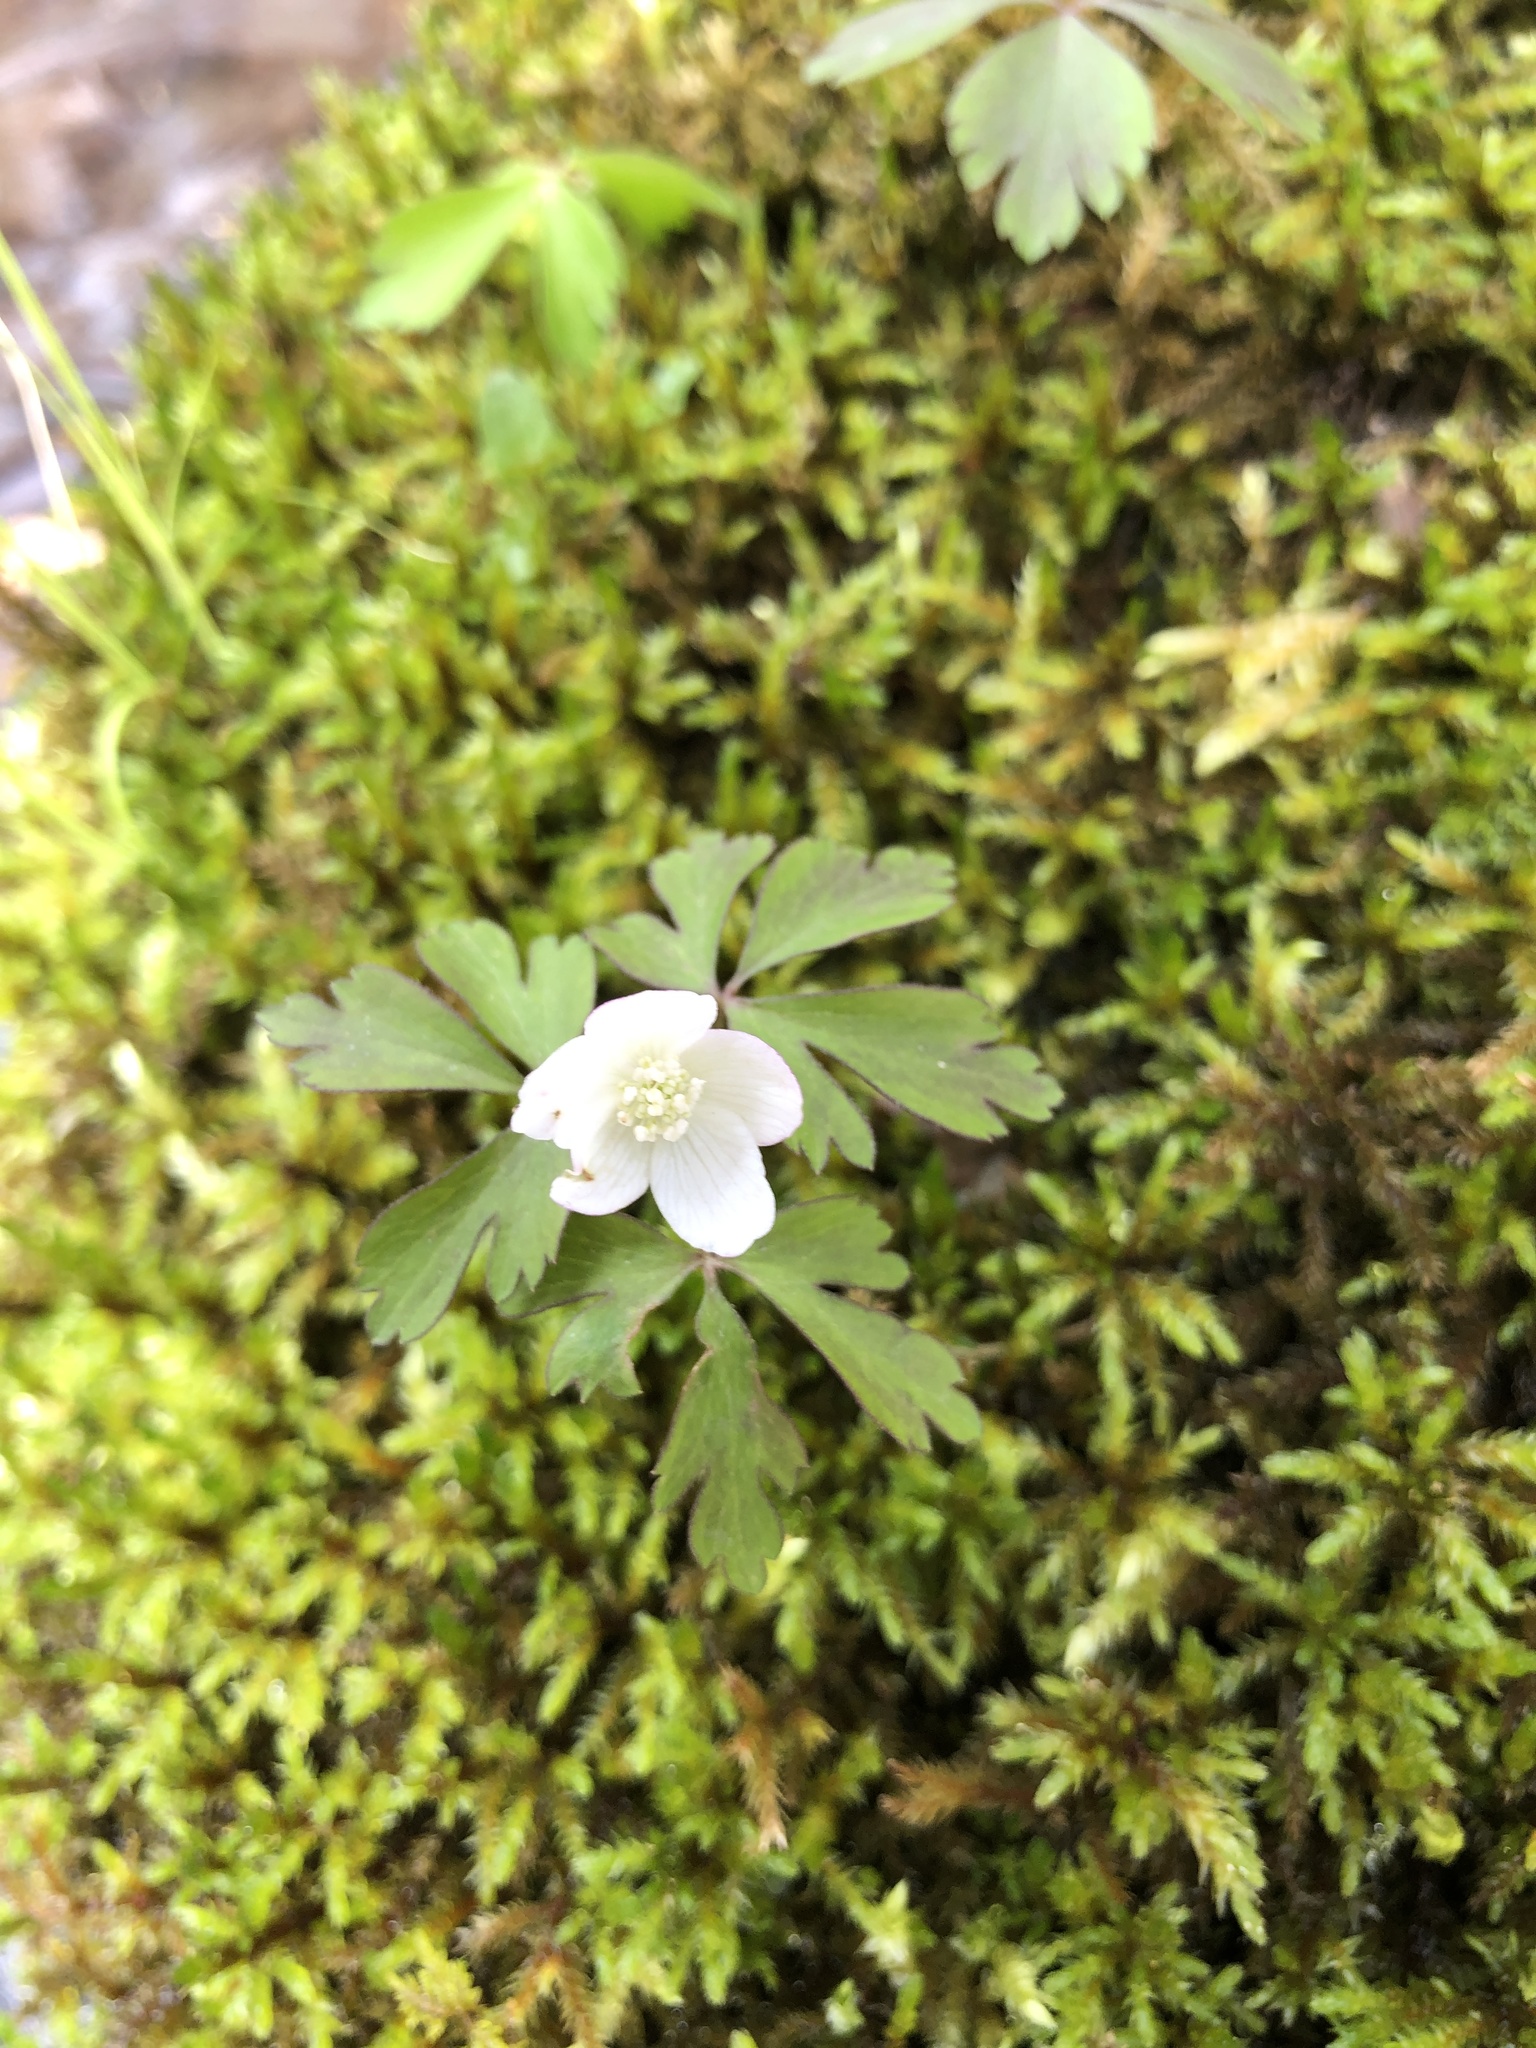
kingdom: Plantae
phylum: Tracheophyta
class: Magnoliopsida
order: Ranunculales
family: Ranunculaceae
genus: Anemone
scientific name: Anemone quinquefolia
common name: Wood anemone
